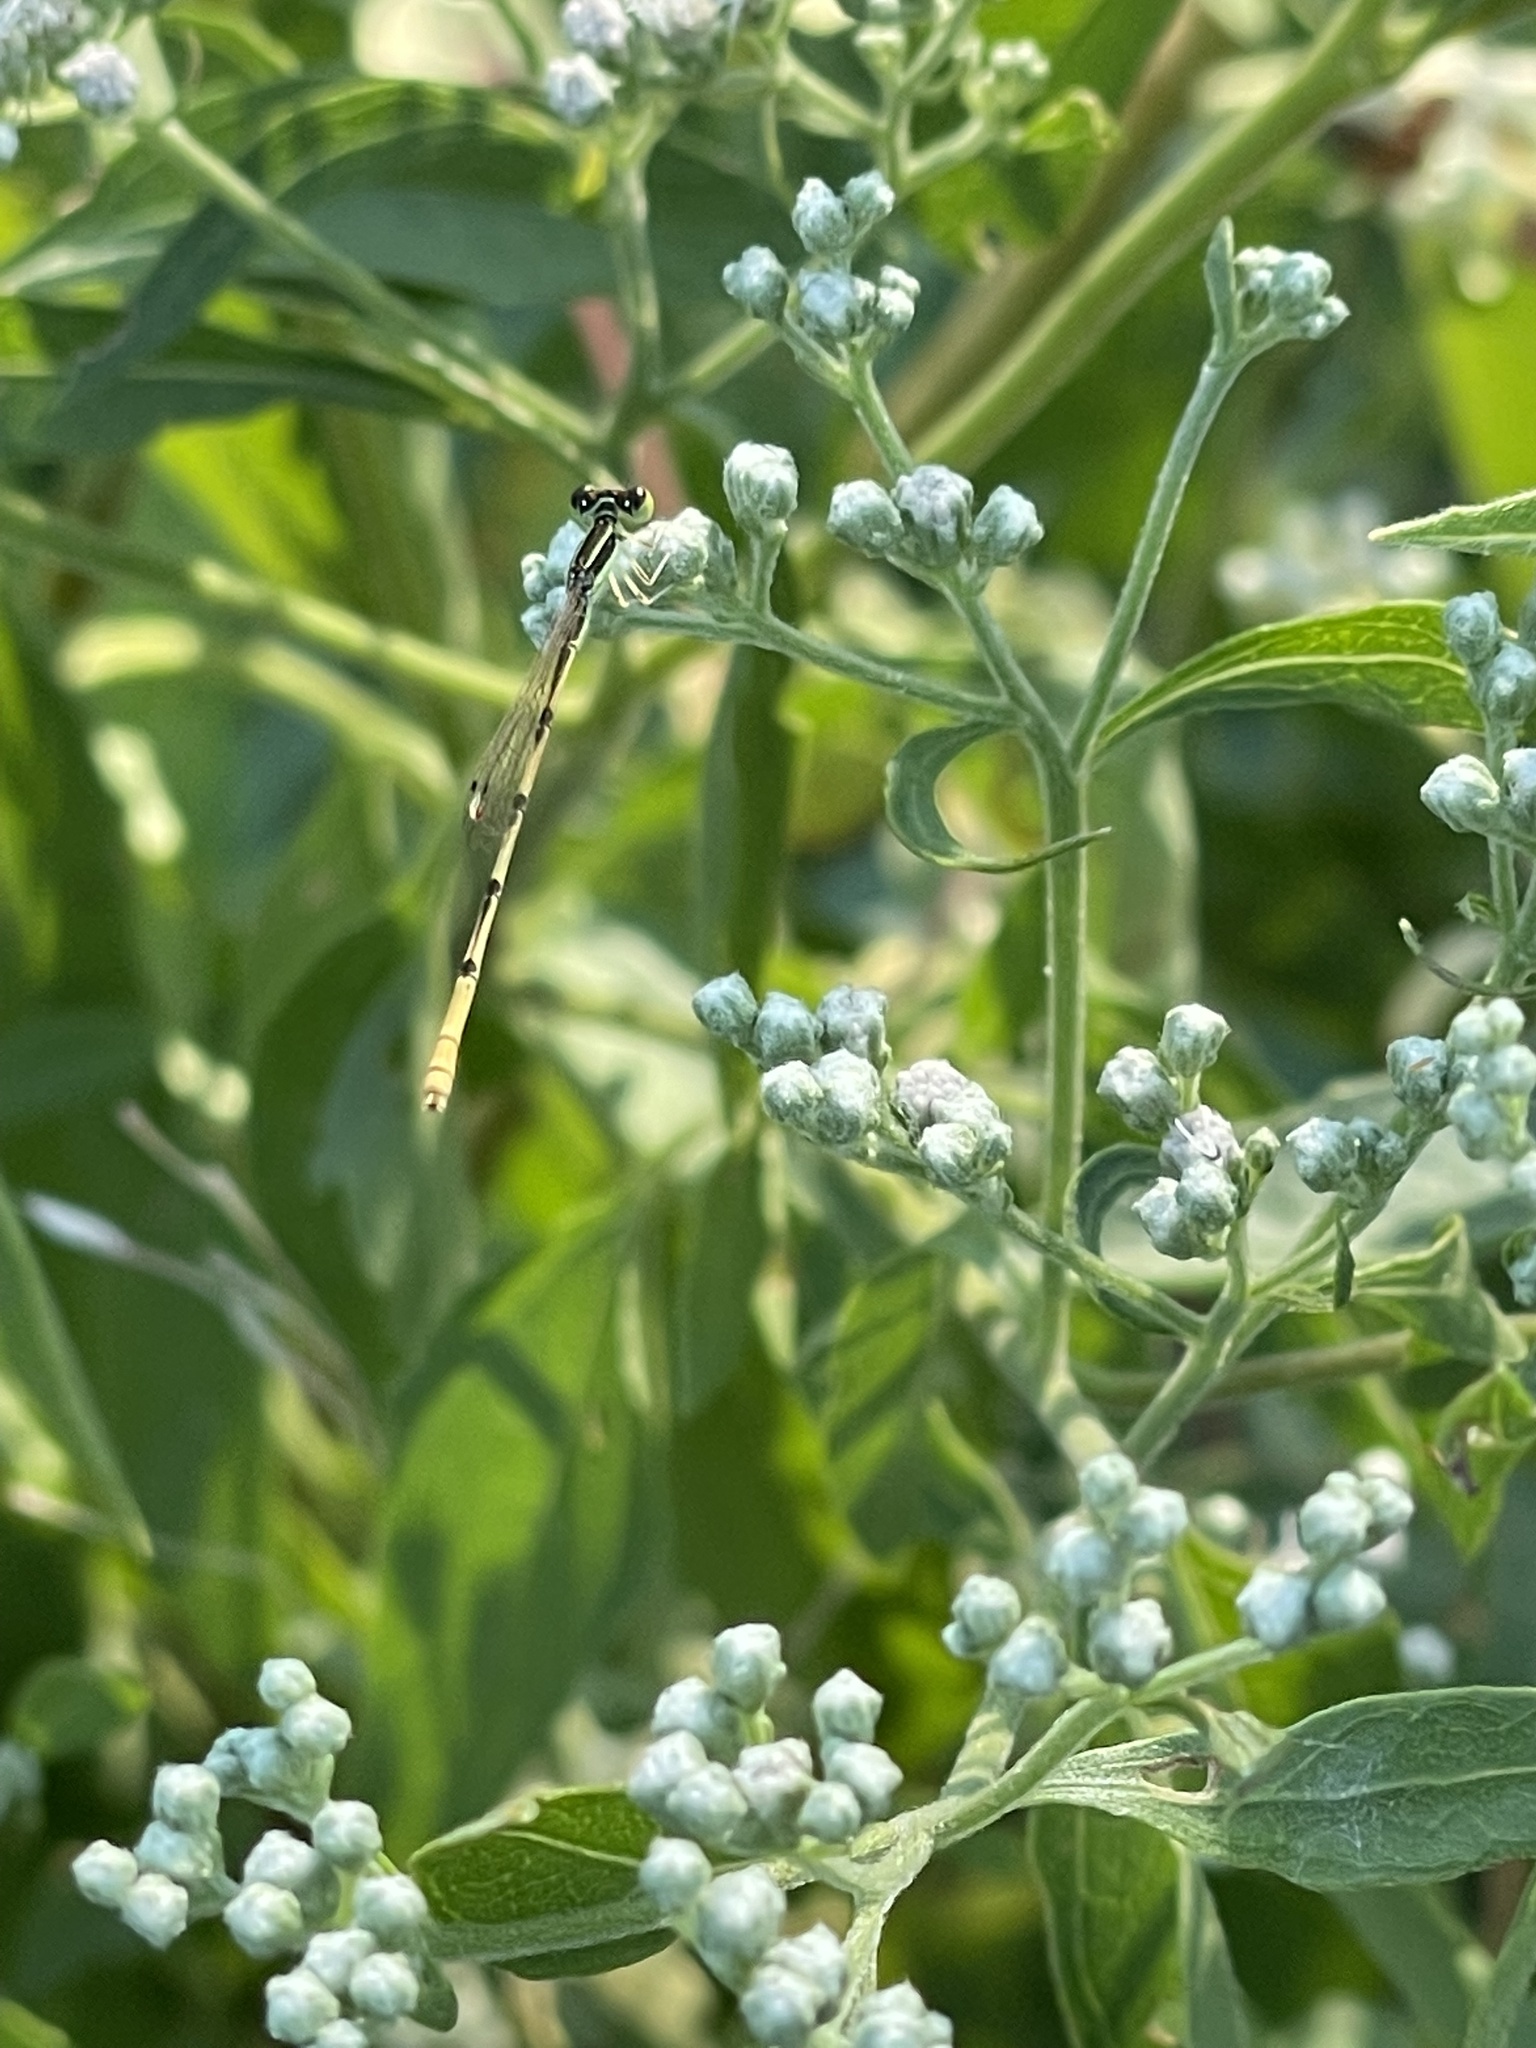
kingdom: Animalia
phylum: Arthropoda
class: Insecta
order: Odonata
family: Coenagrionidae
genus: Ischnura
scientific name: Ischnura hastata
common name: Citrine forktail
